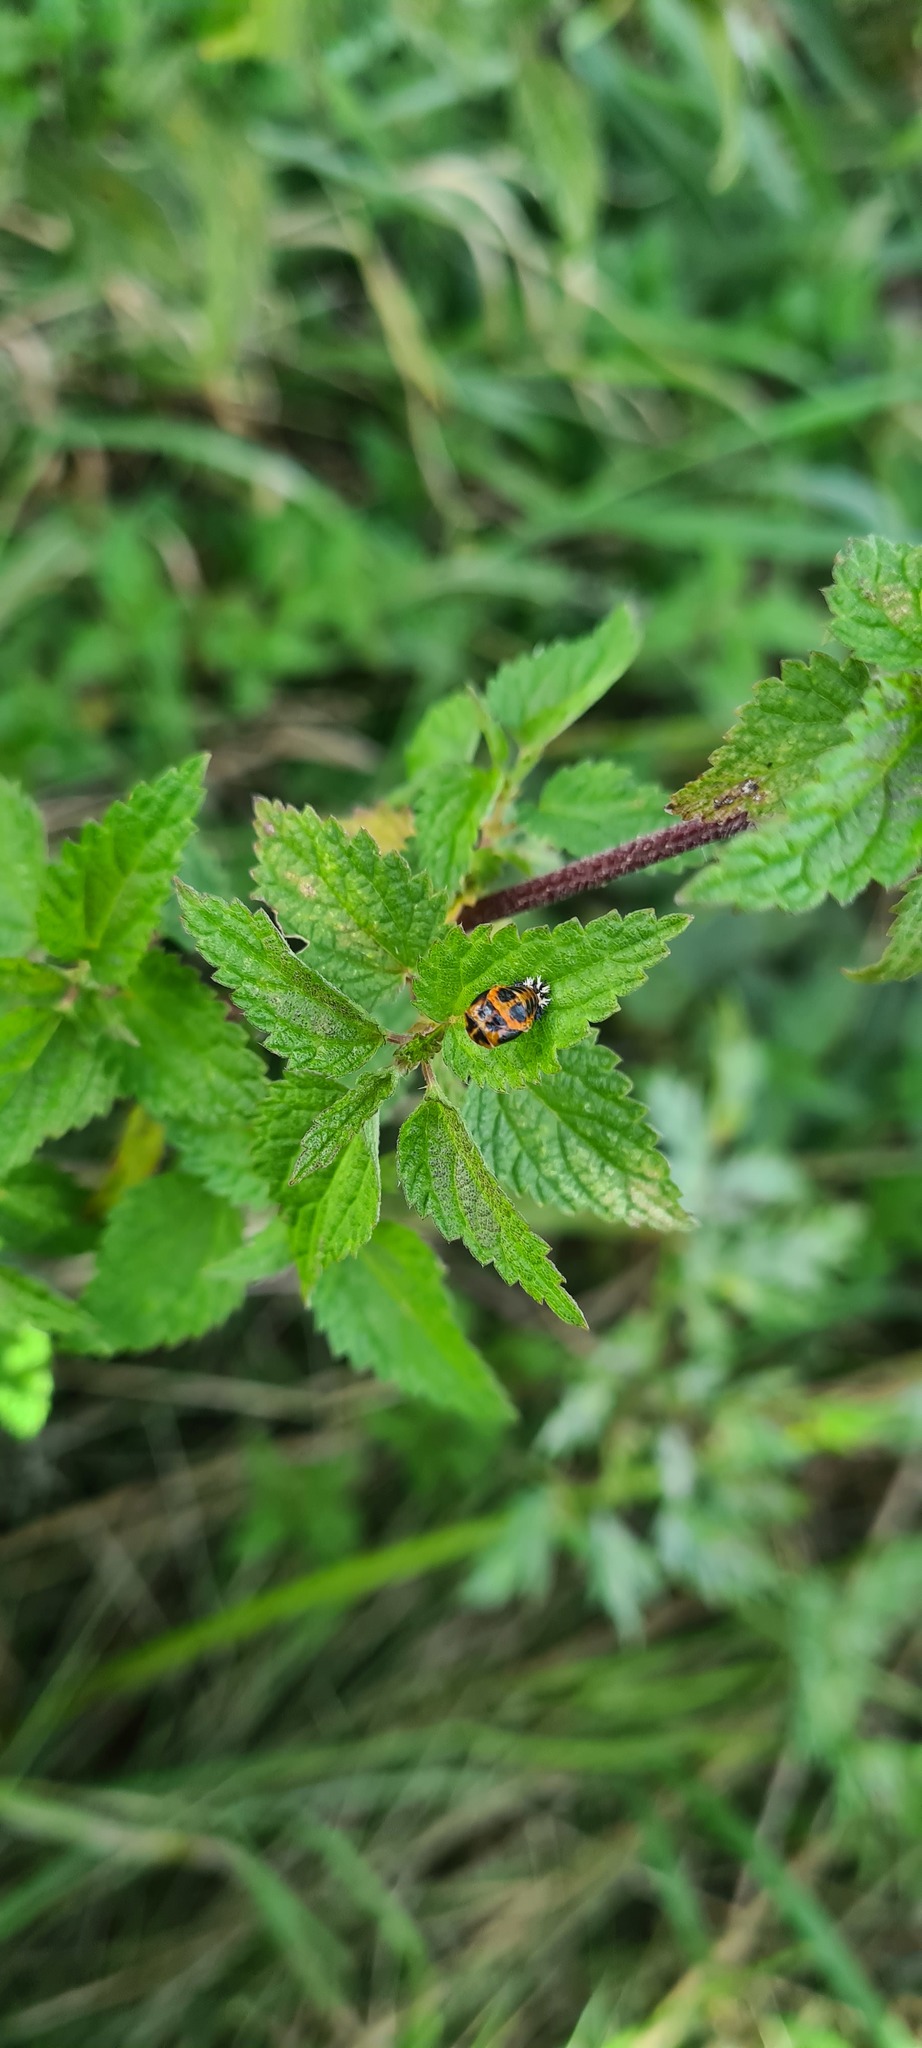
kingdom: Animalia
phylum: Arthropoda
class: Insecta
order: Coleoptera
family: Coccinellidae
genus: Harmonia
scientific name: Harmonia axyridis
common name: Harlequin ladybird
